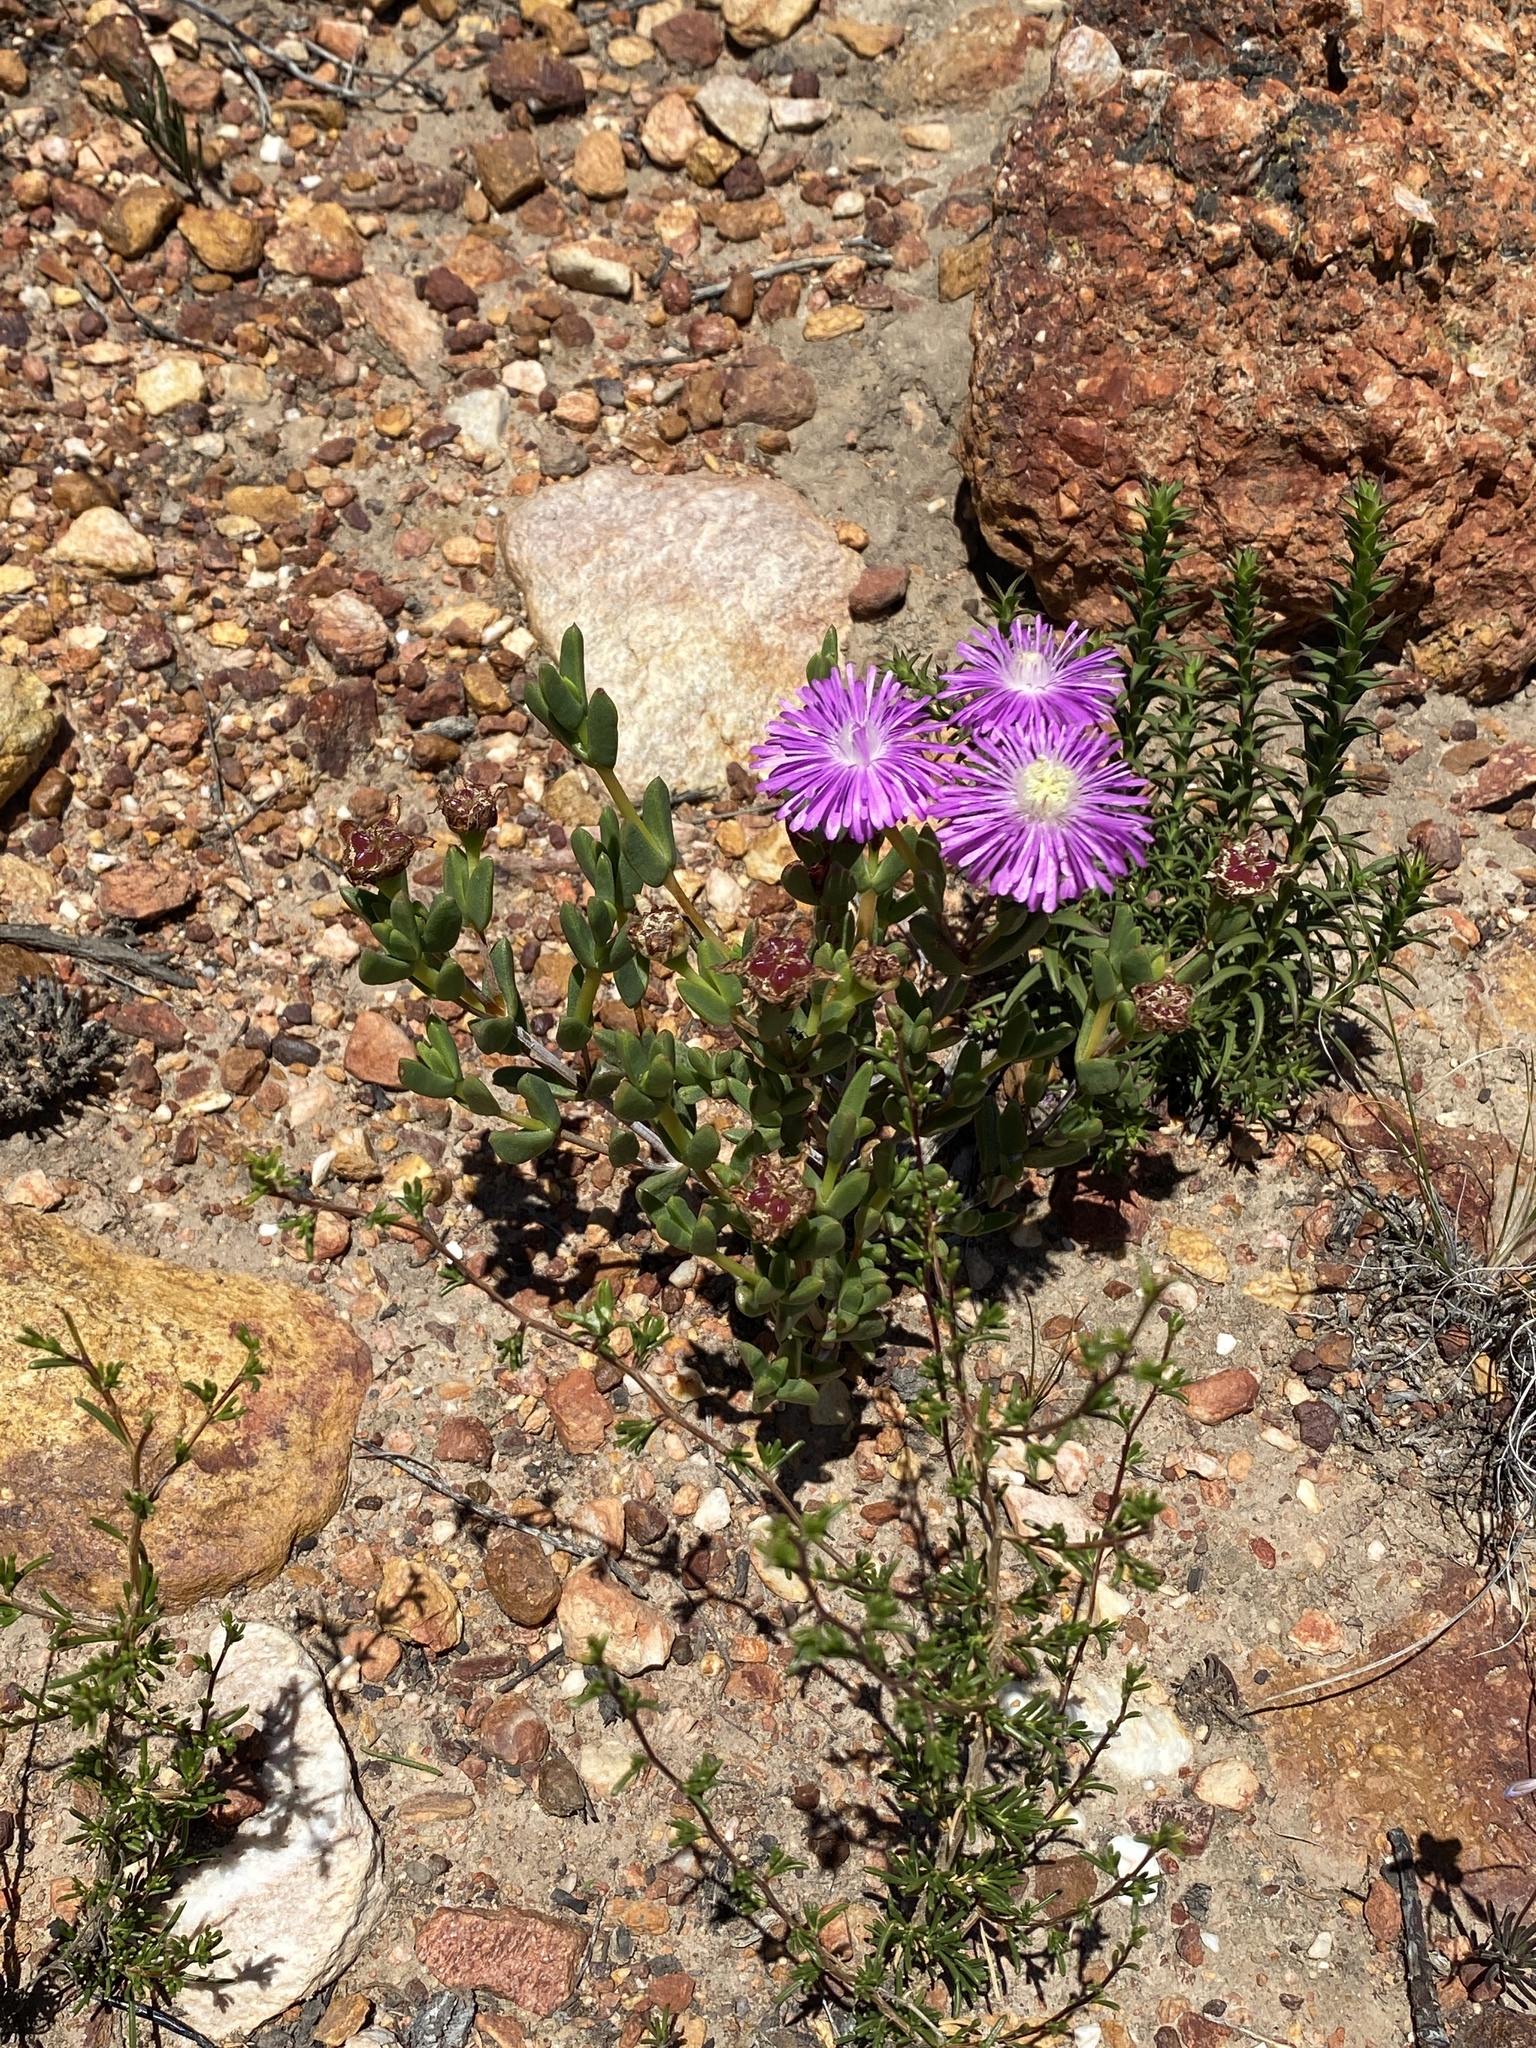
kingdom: Plantae
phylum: Tracheophyta
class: Magnoliopsida
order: Caryophyllales
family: Aizoaceae
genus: Ruschia
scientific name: Ruschia fourcadei
